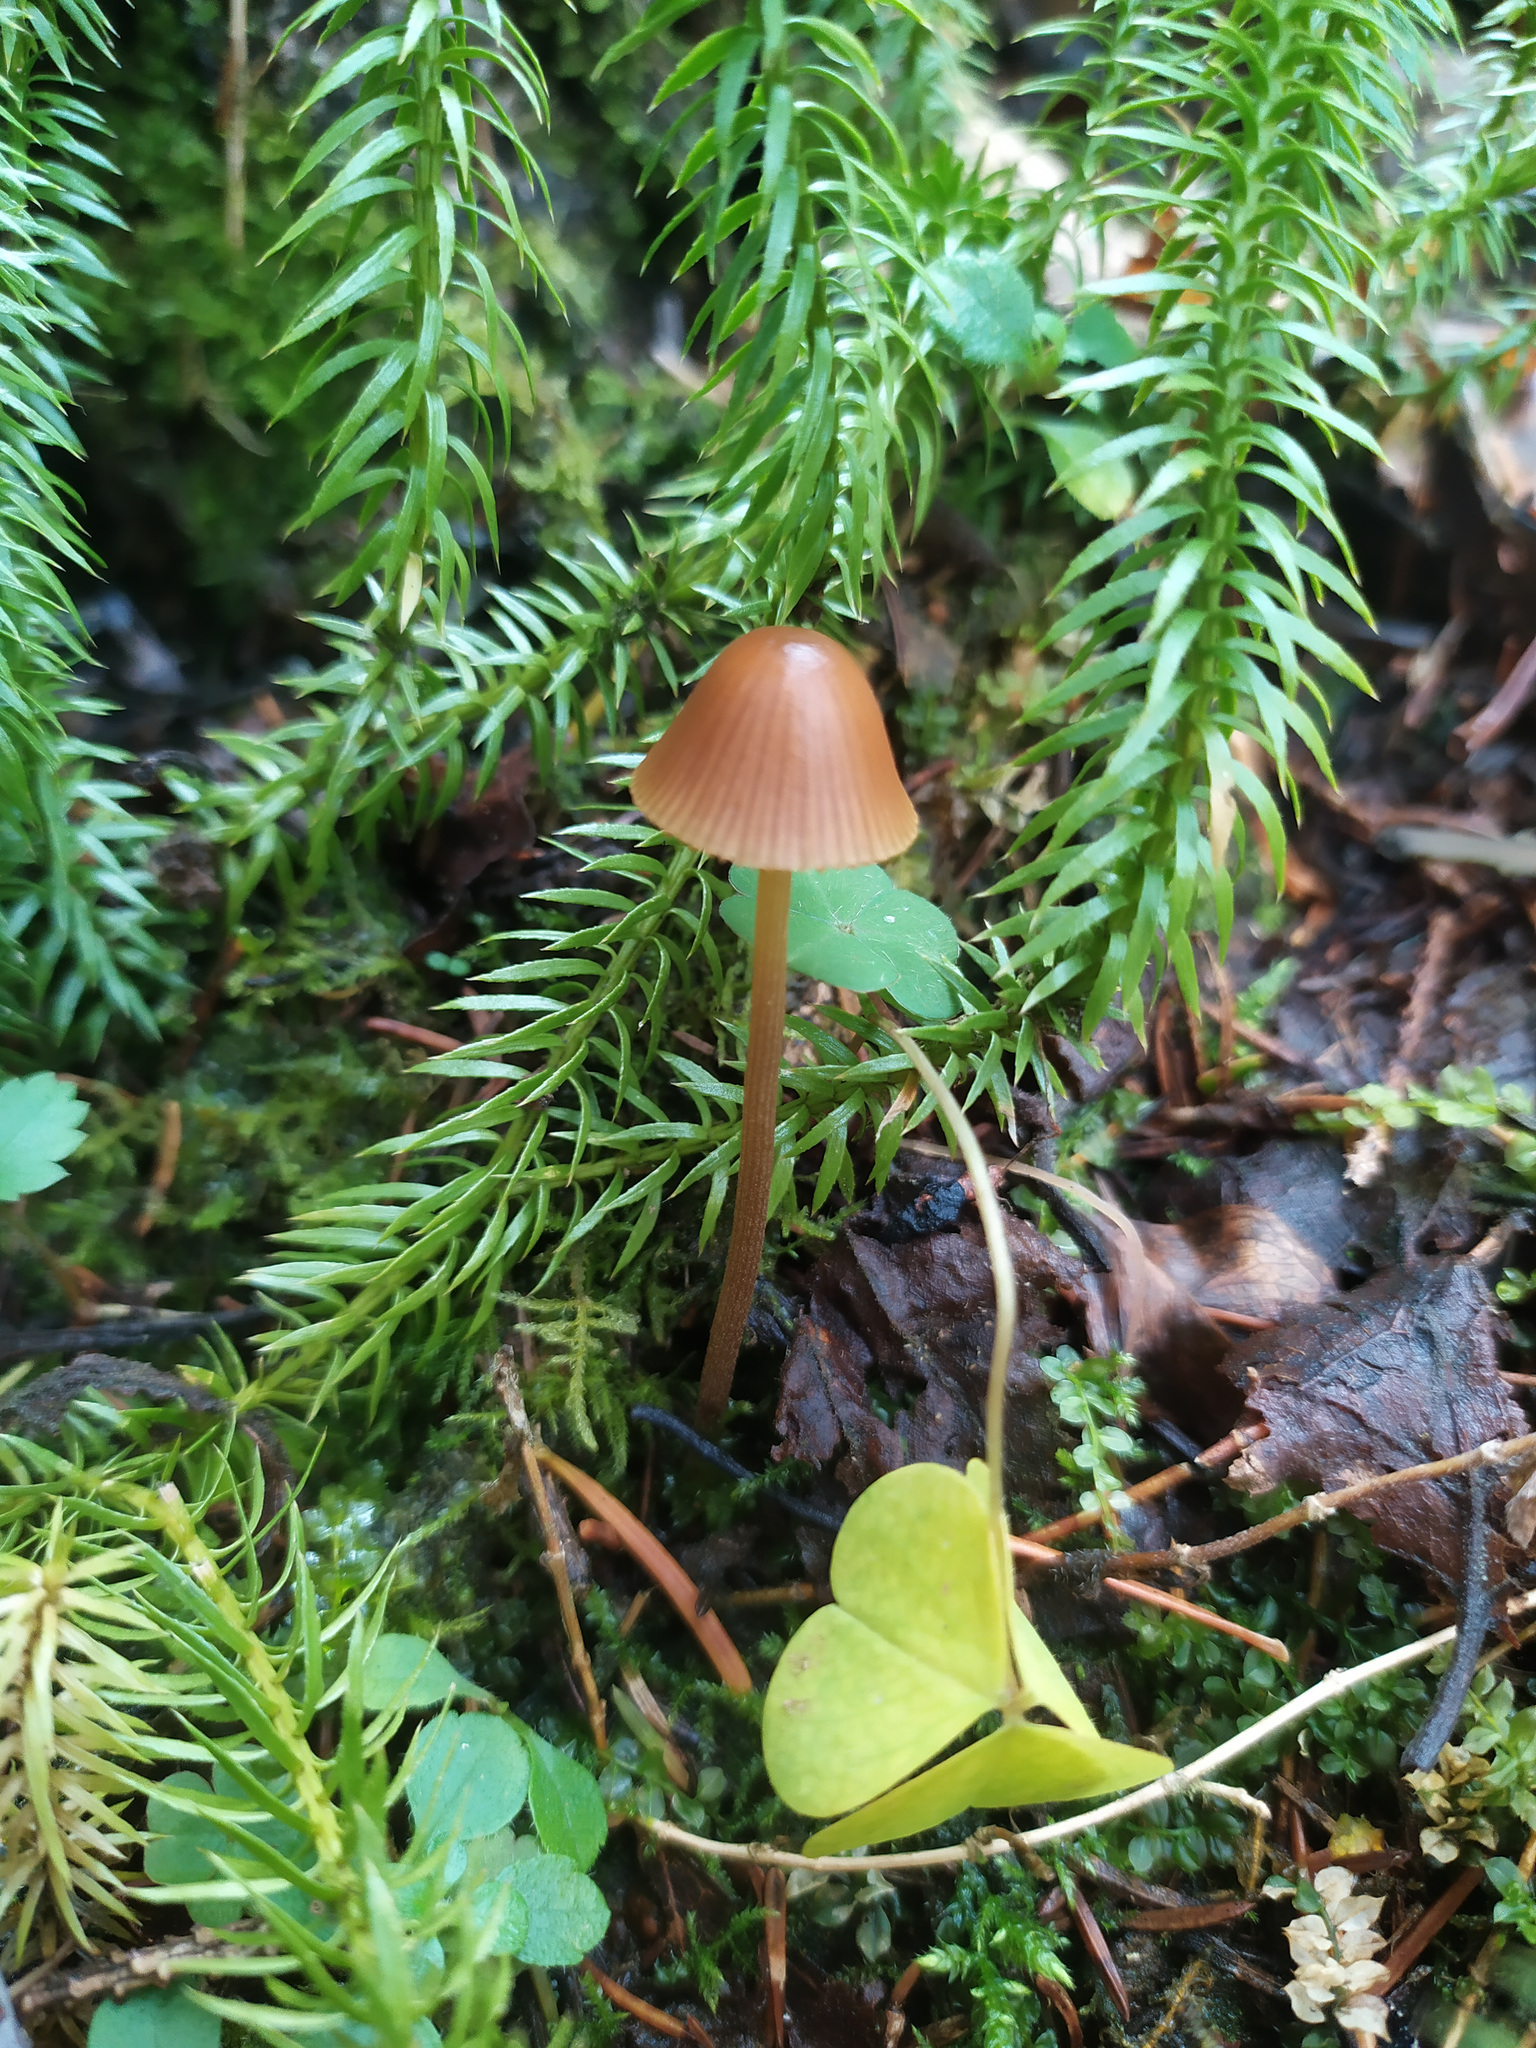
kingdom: Plantae
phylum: Tracheophyta
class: Lycopodiopsida
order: Lycopodiales
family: Lycopodiaceae
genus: Spinulum
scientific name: Spinulum annotinum
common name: Interrupted club-moss
